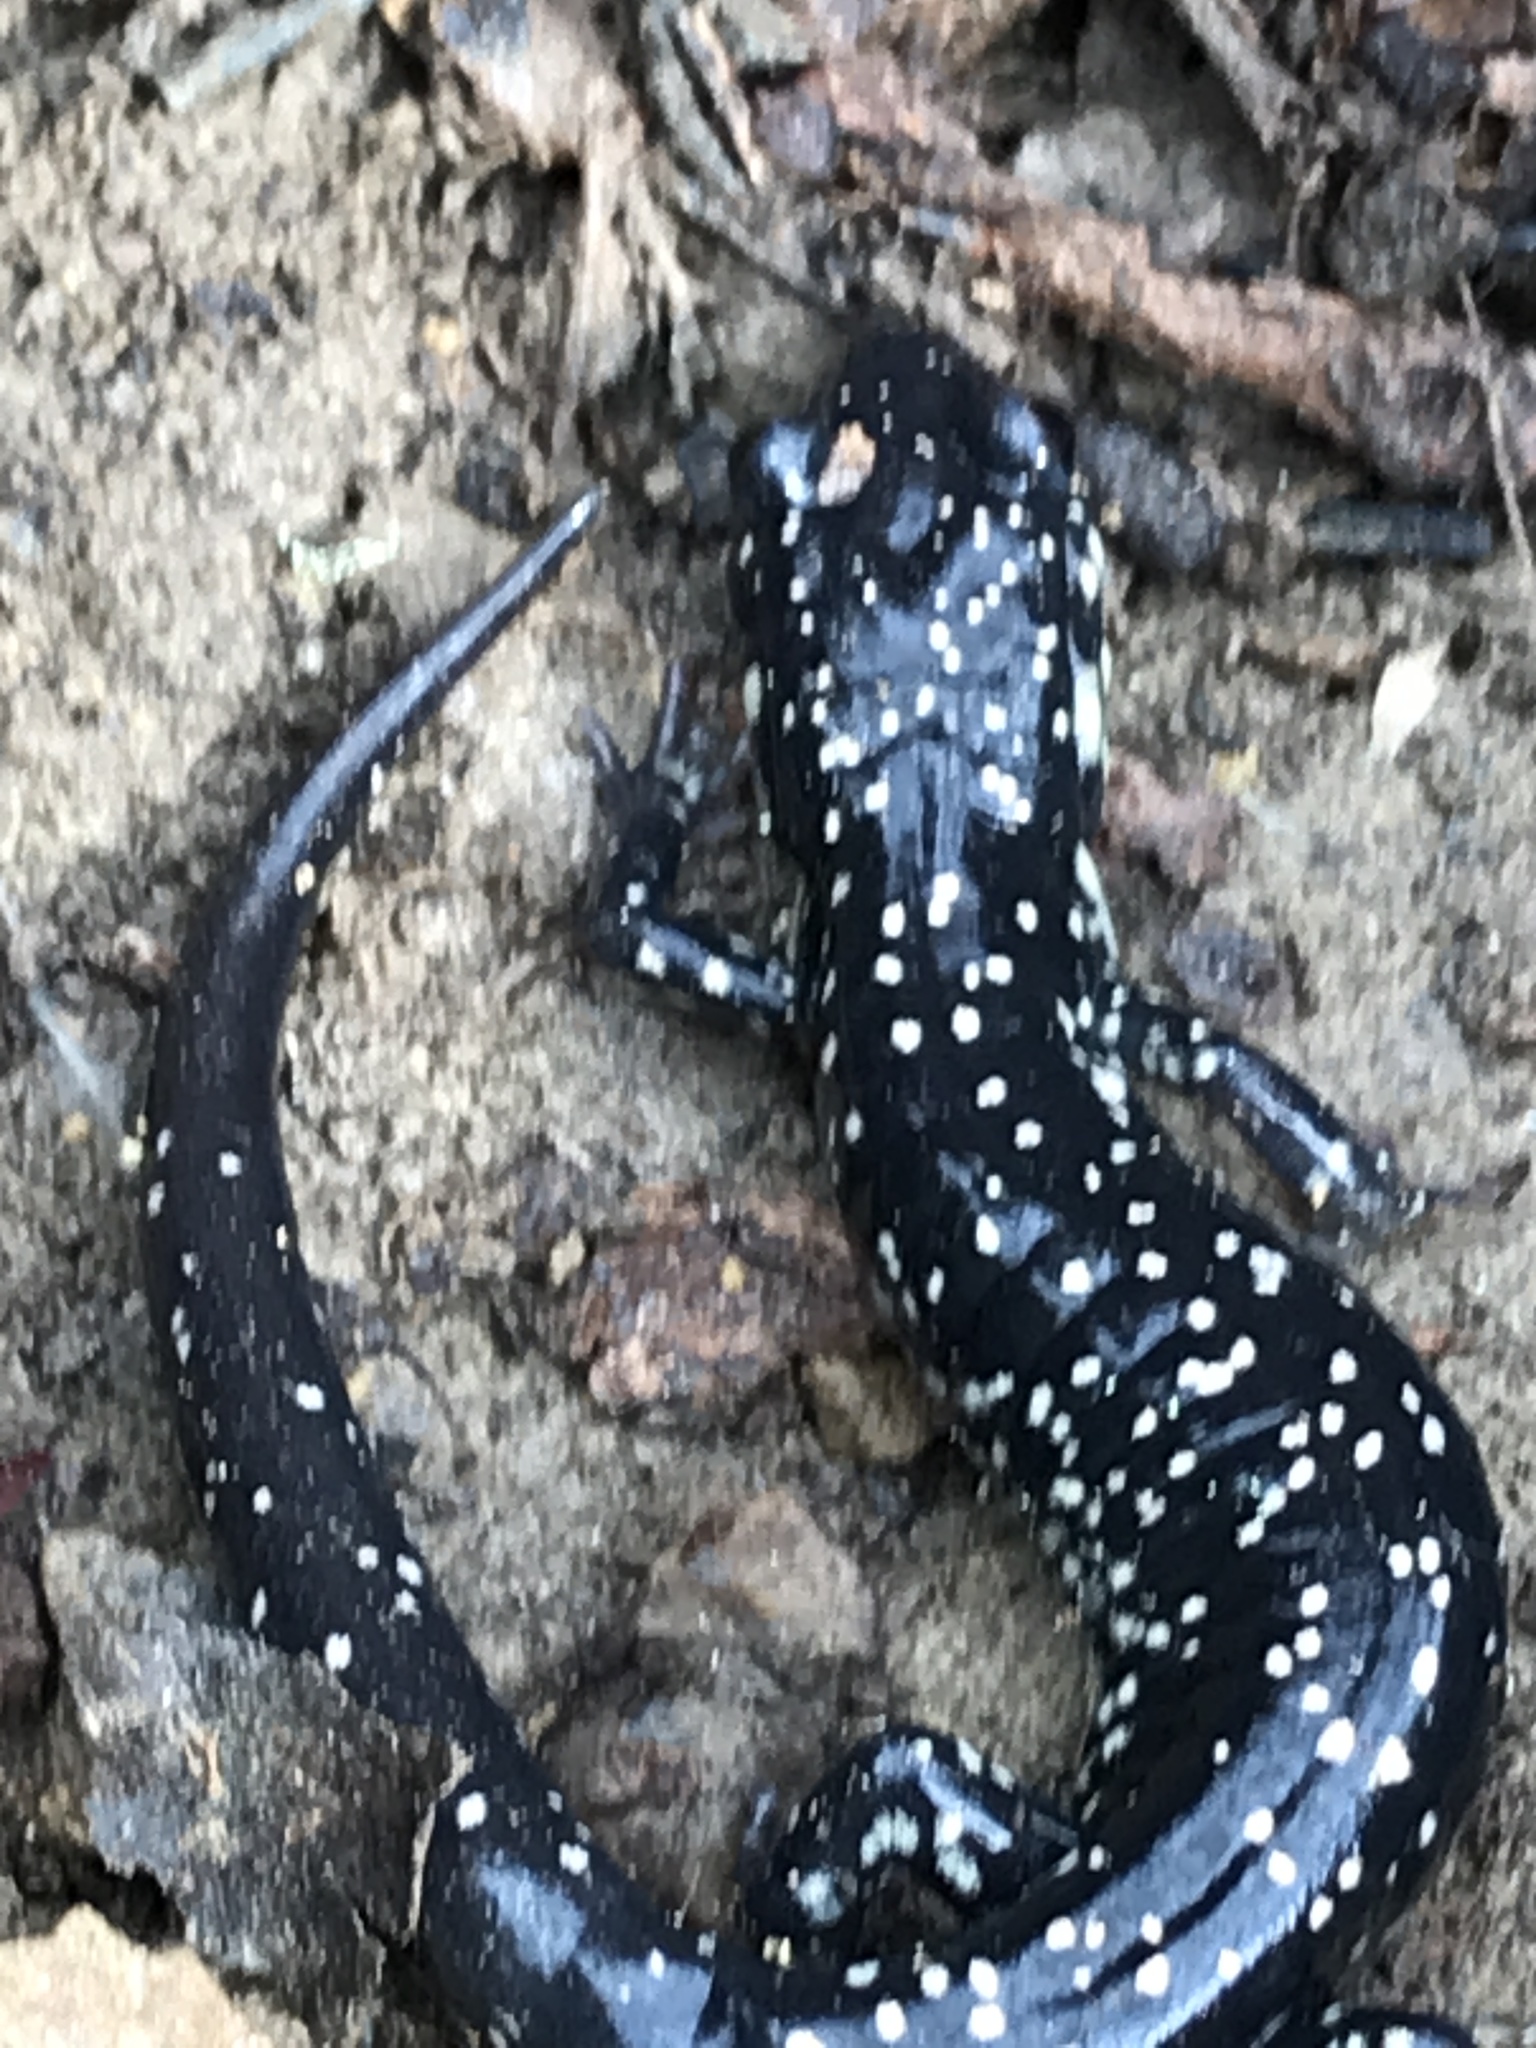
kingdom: Animalia
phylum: Chordata
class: Amphibia
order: Caudata
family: Plethodontidae
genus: Plethodon
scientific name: Plethodon glutinosus
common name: Northern slimy salamander
